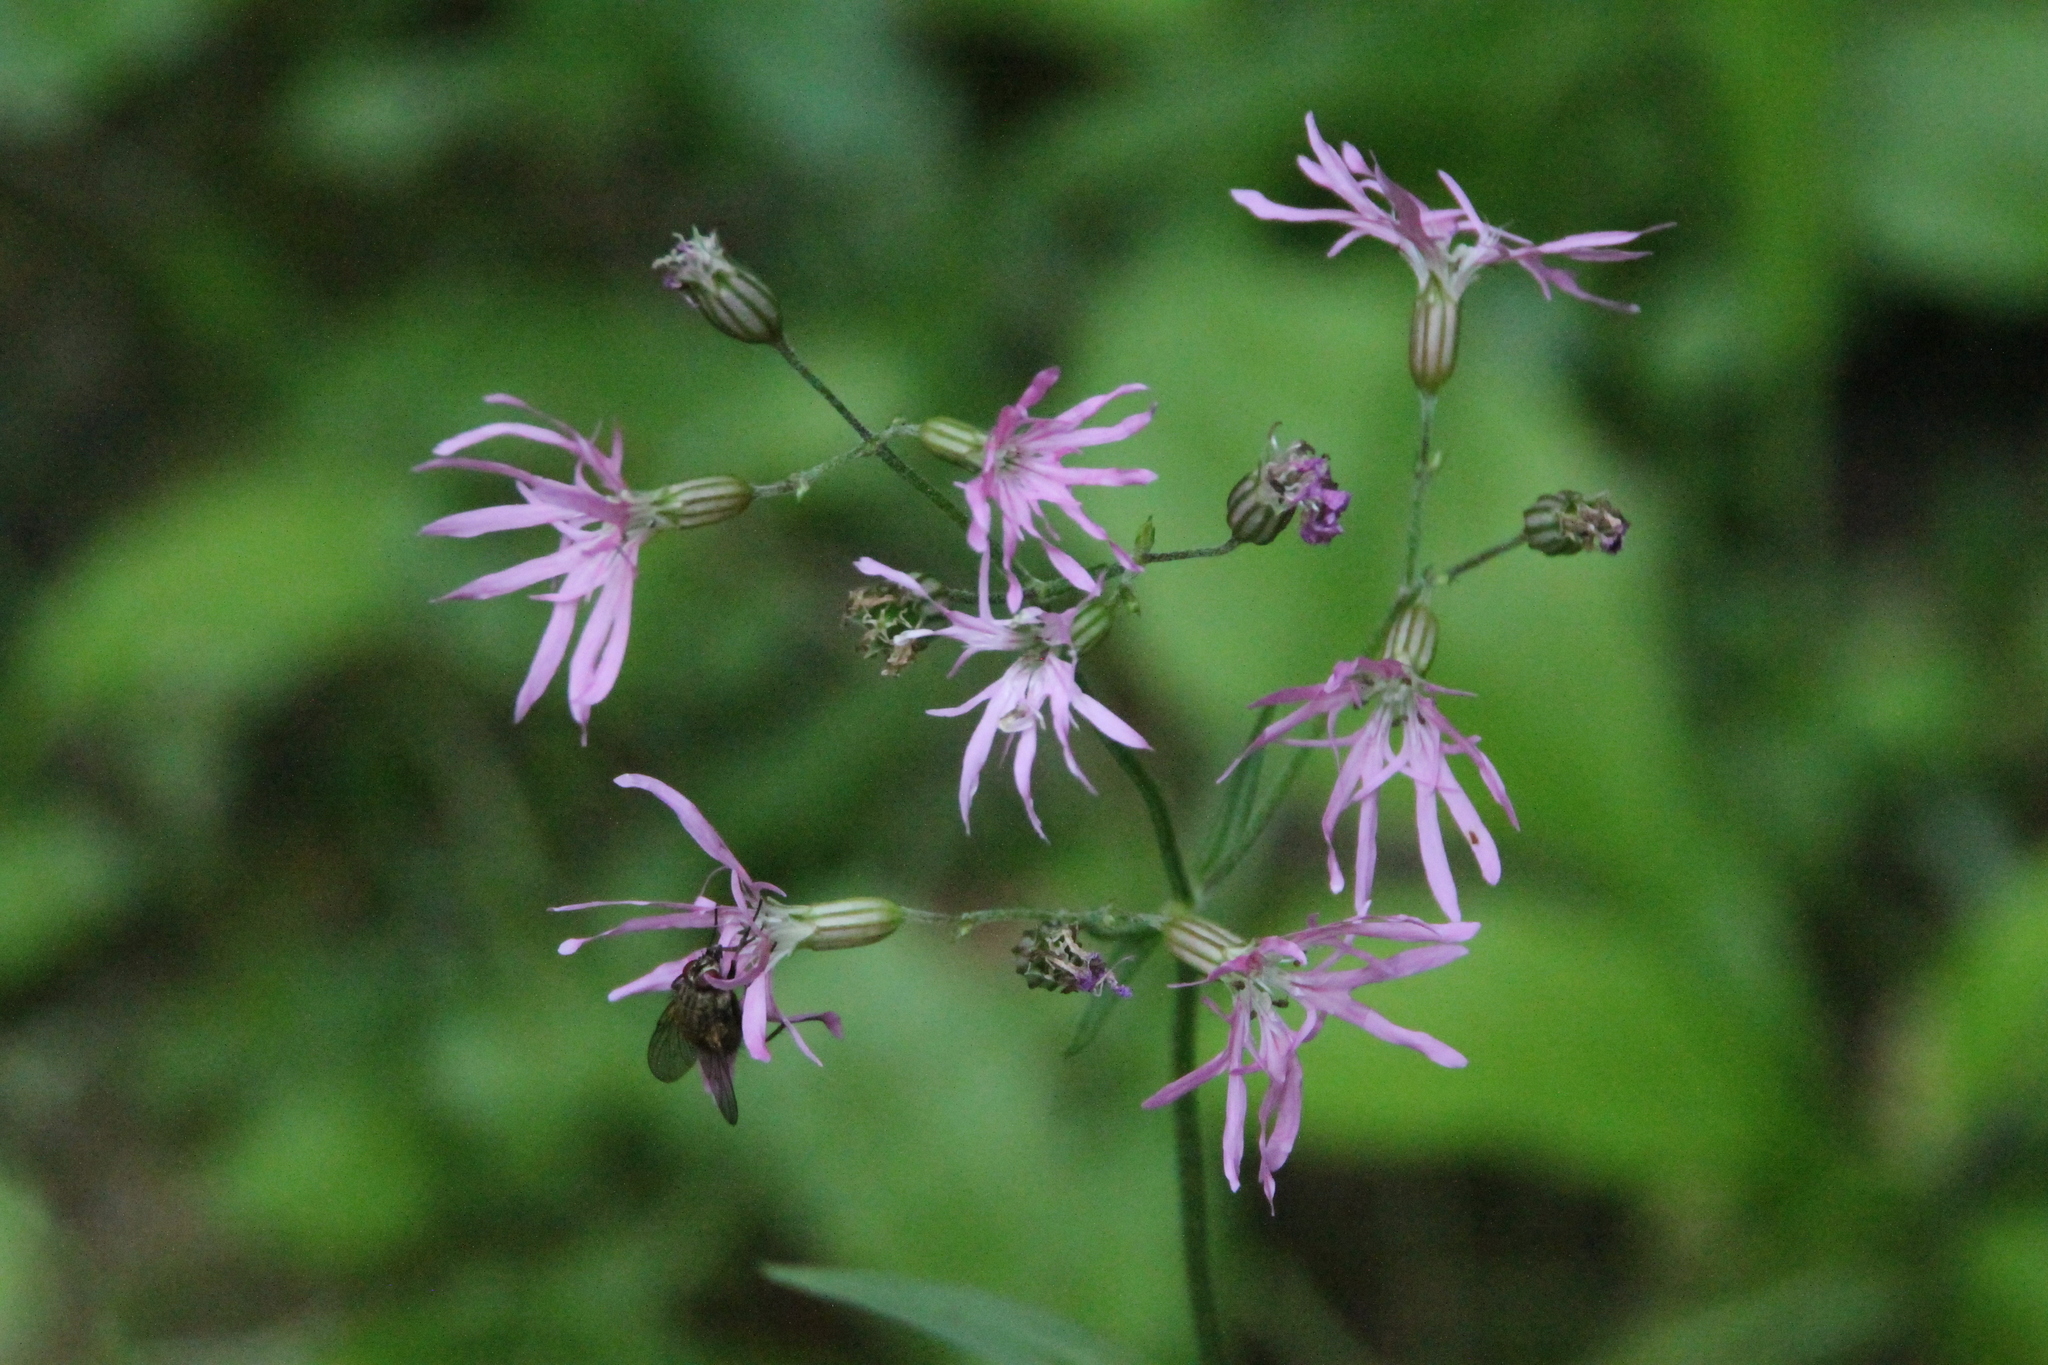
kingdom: Plantae
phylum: Tracheophyta
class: Magnoliopsida
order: Caryophyllales
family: Caryophyllaceae
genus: Silene
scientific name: Silene flos-cuculi
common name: Ragged-robin
